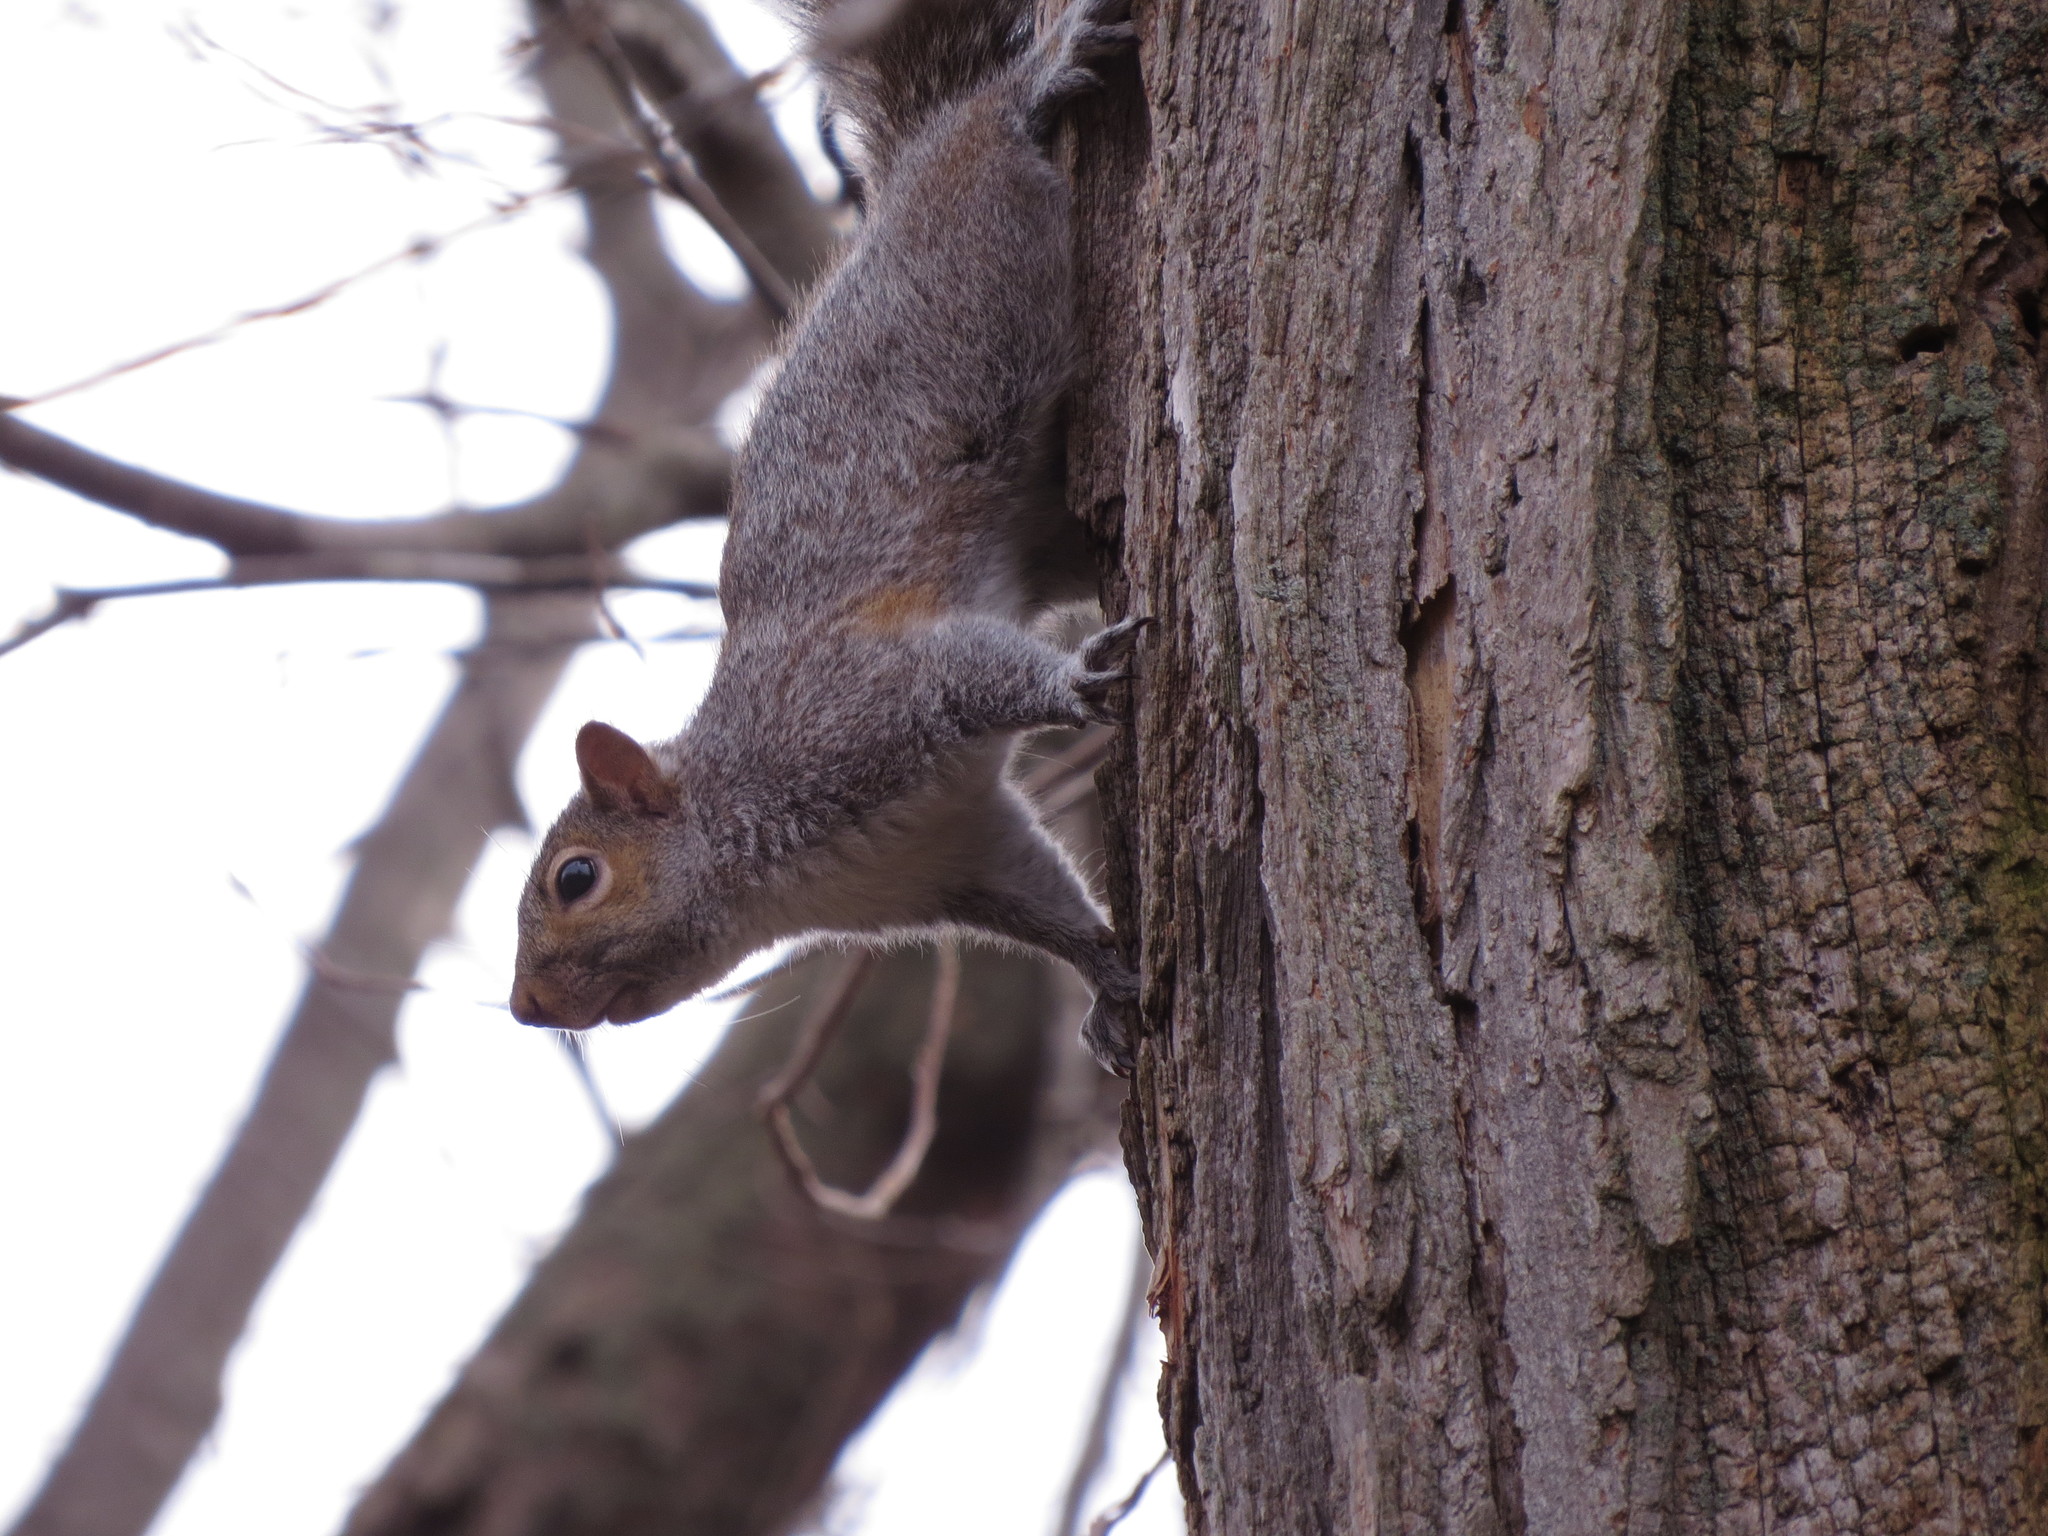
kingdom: Animalia
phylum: Chordata
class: Mammalia
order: Rodentia
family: Sciuridae
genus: Sciurus
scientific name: Sciurus carolinensis
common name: Eastern gray squirrel
